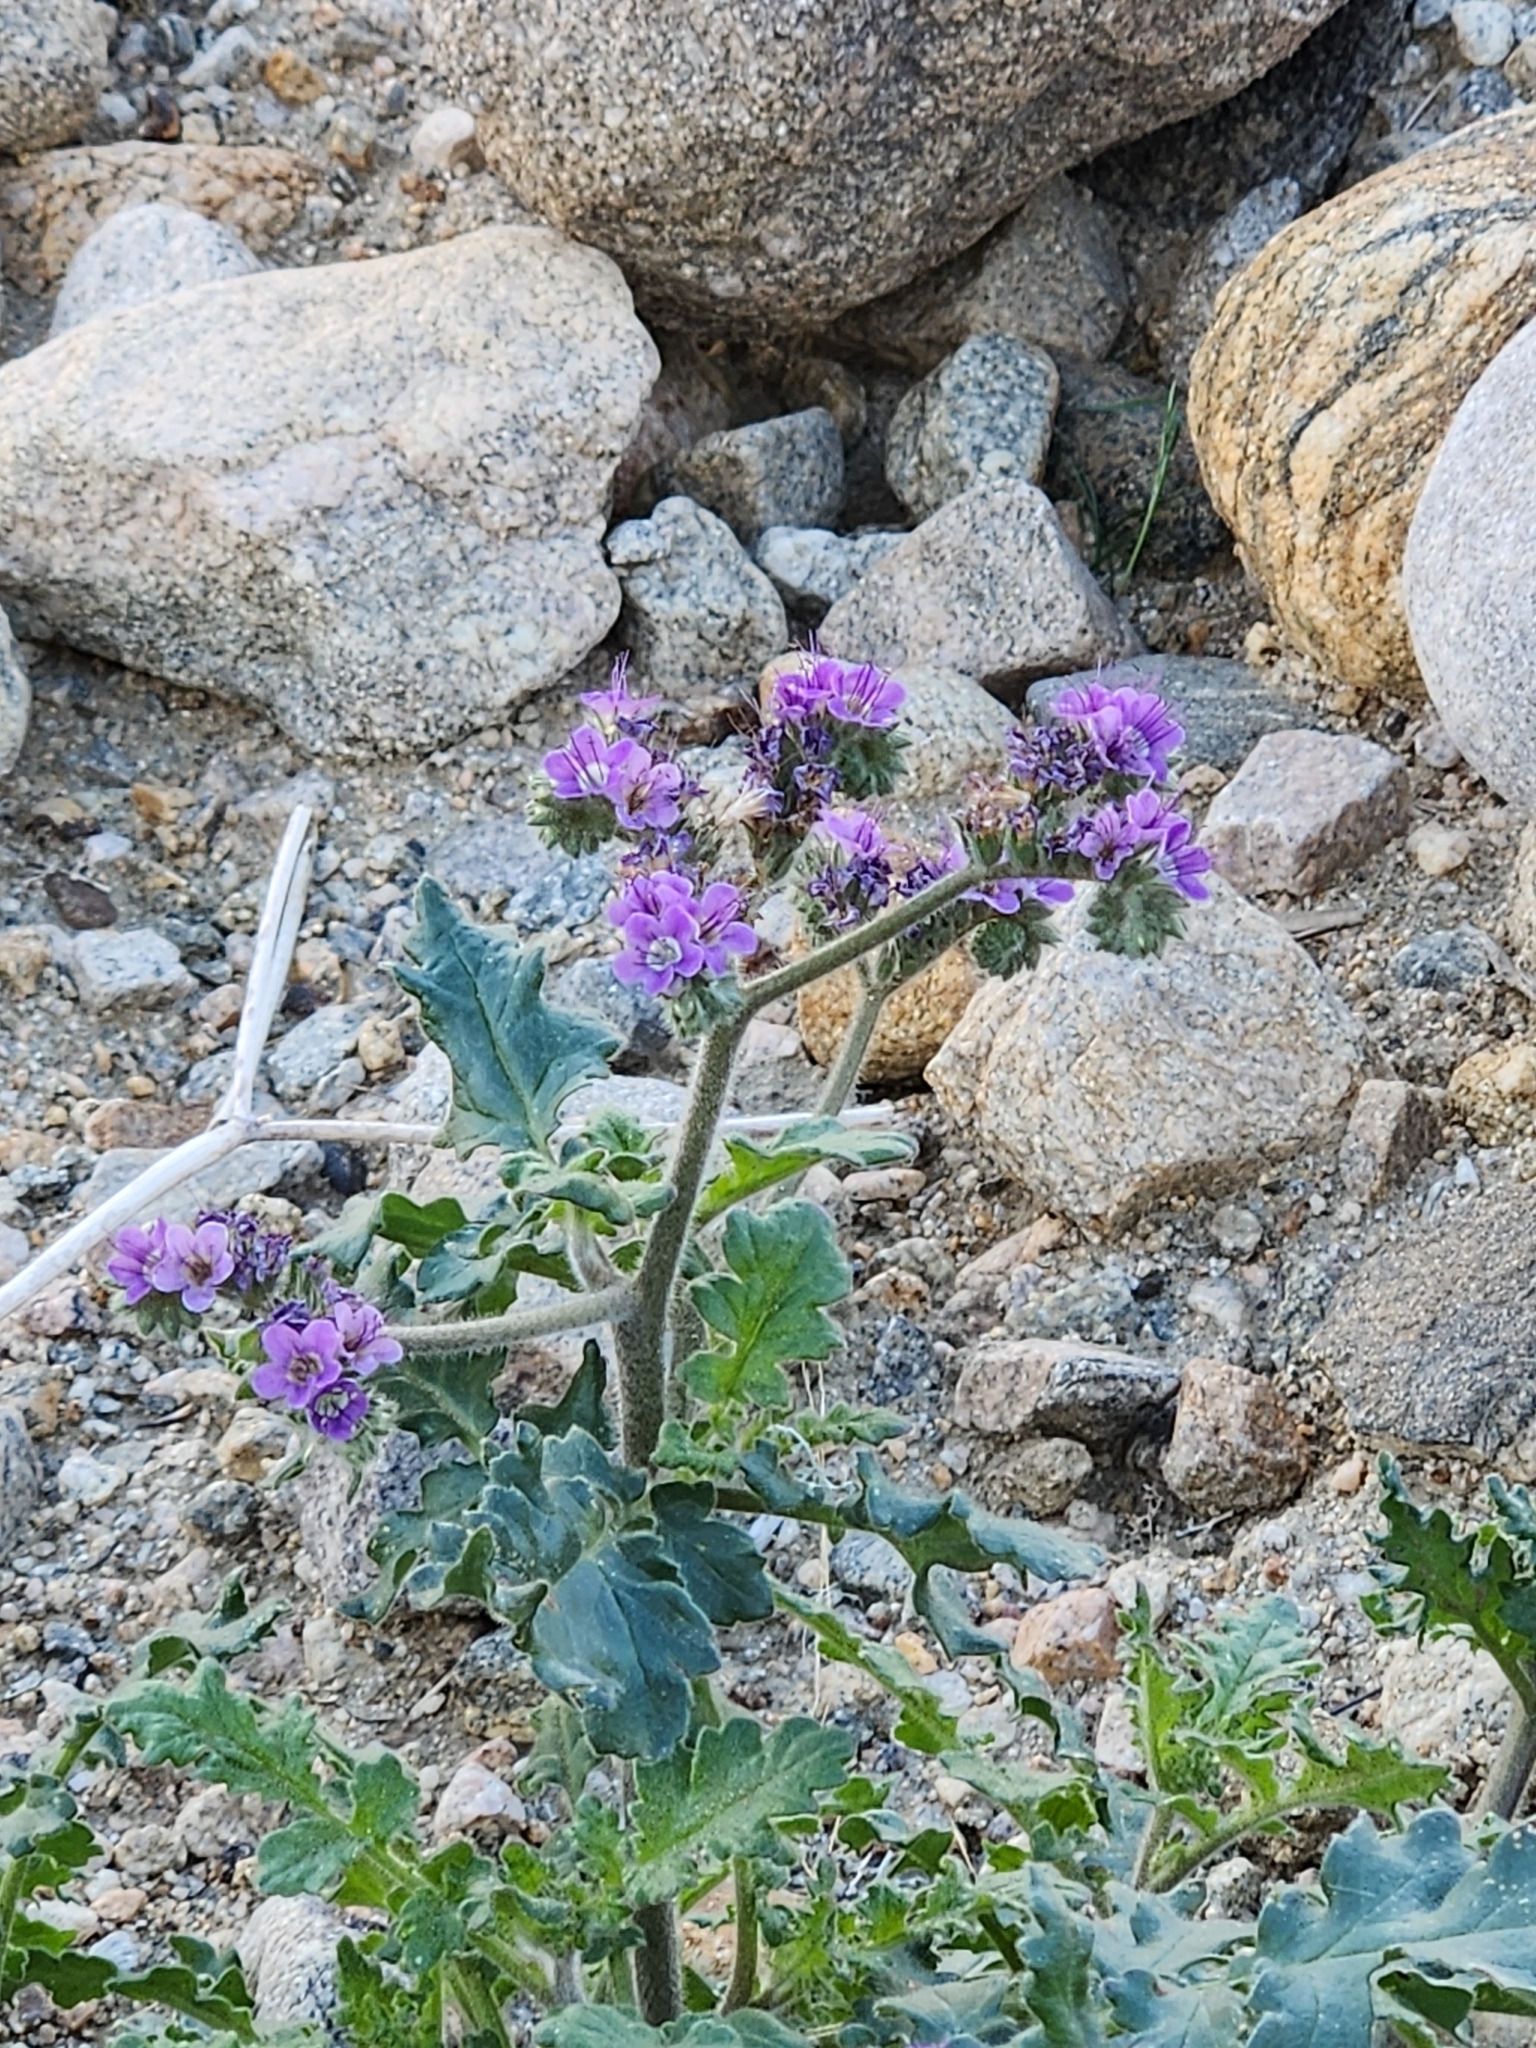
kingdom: Plantae
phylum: Tracheophyta
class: Magnoliopsida
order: Boraginales
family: Hydrophyllaceae
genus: Phacelia
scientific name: Phacelia crenulata
